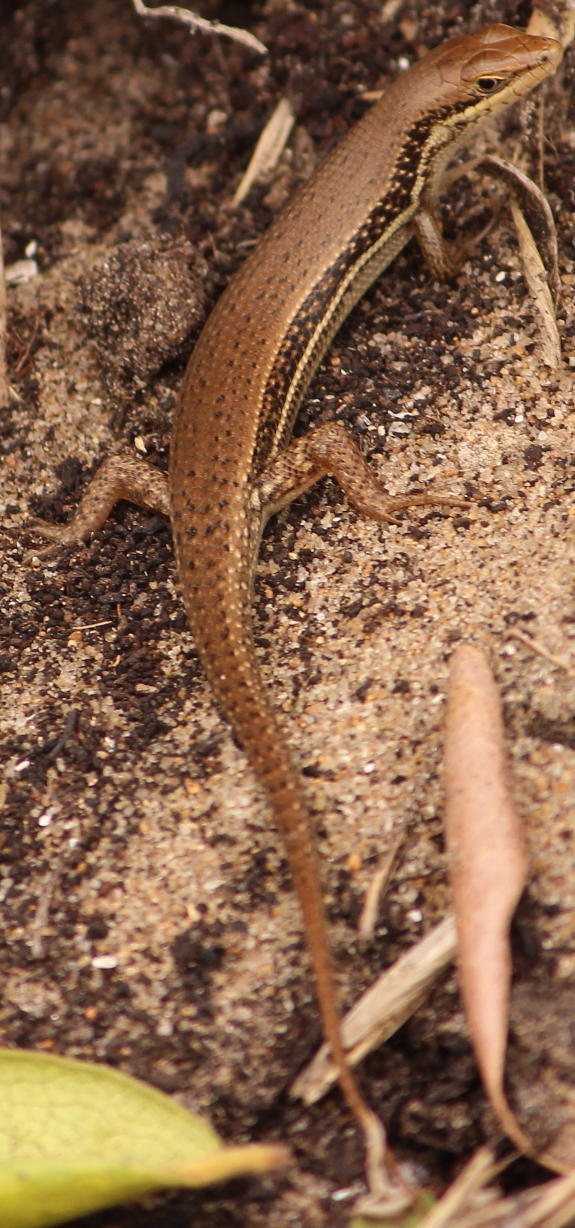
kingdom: Animalia
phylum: Chordata
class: Squamata
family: Scincidae
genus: Trachylepis
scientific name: Trachylepis depressa
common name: Eastern coastal skink
